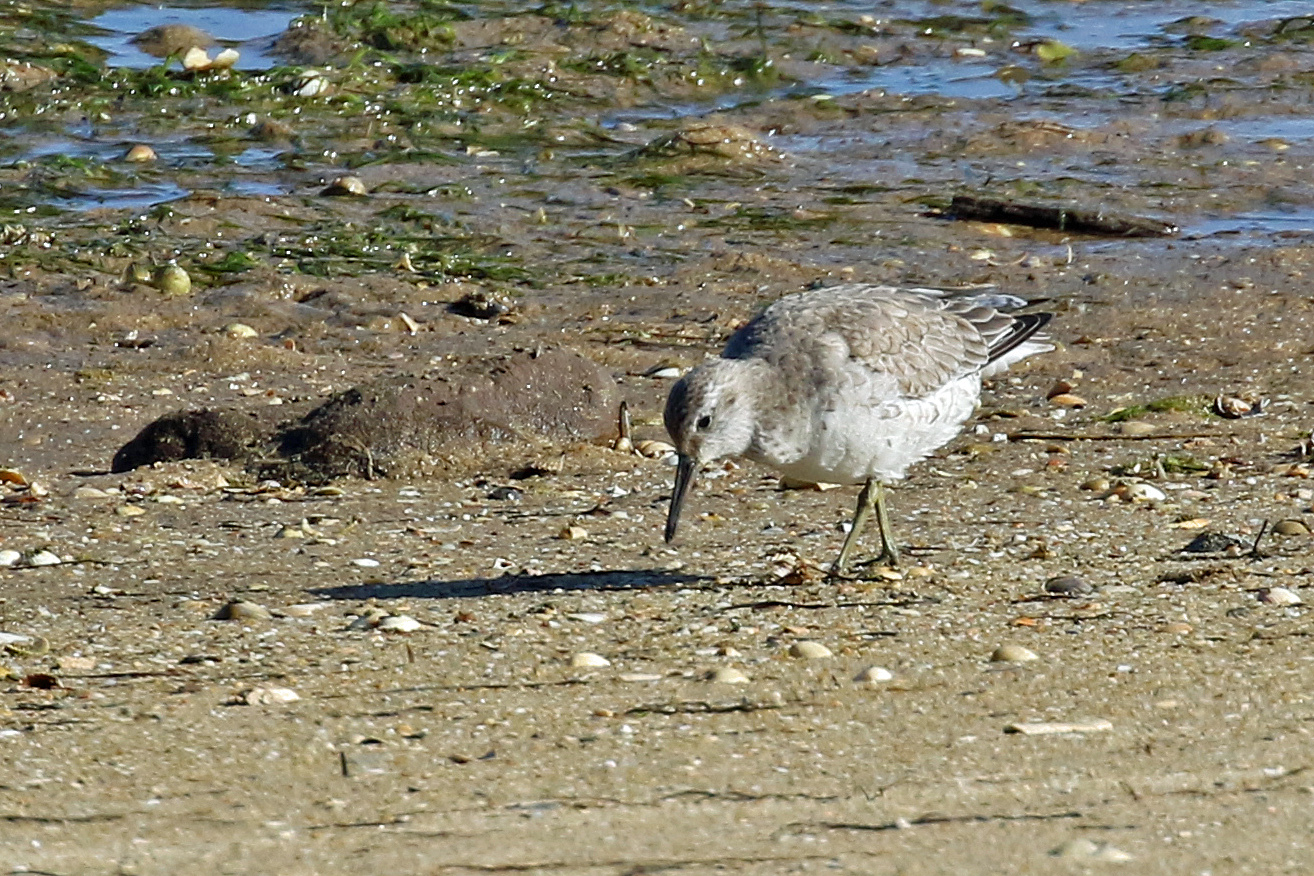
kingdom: Animalia
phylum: Chordata
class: Aves
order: Charadriiformes
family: Scolopacidae
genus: Calidris
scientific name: Calidris canutus
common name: Red knot
